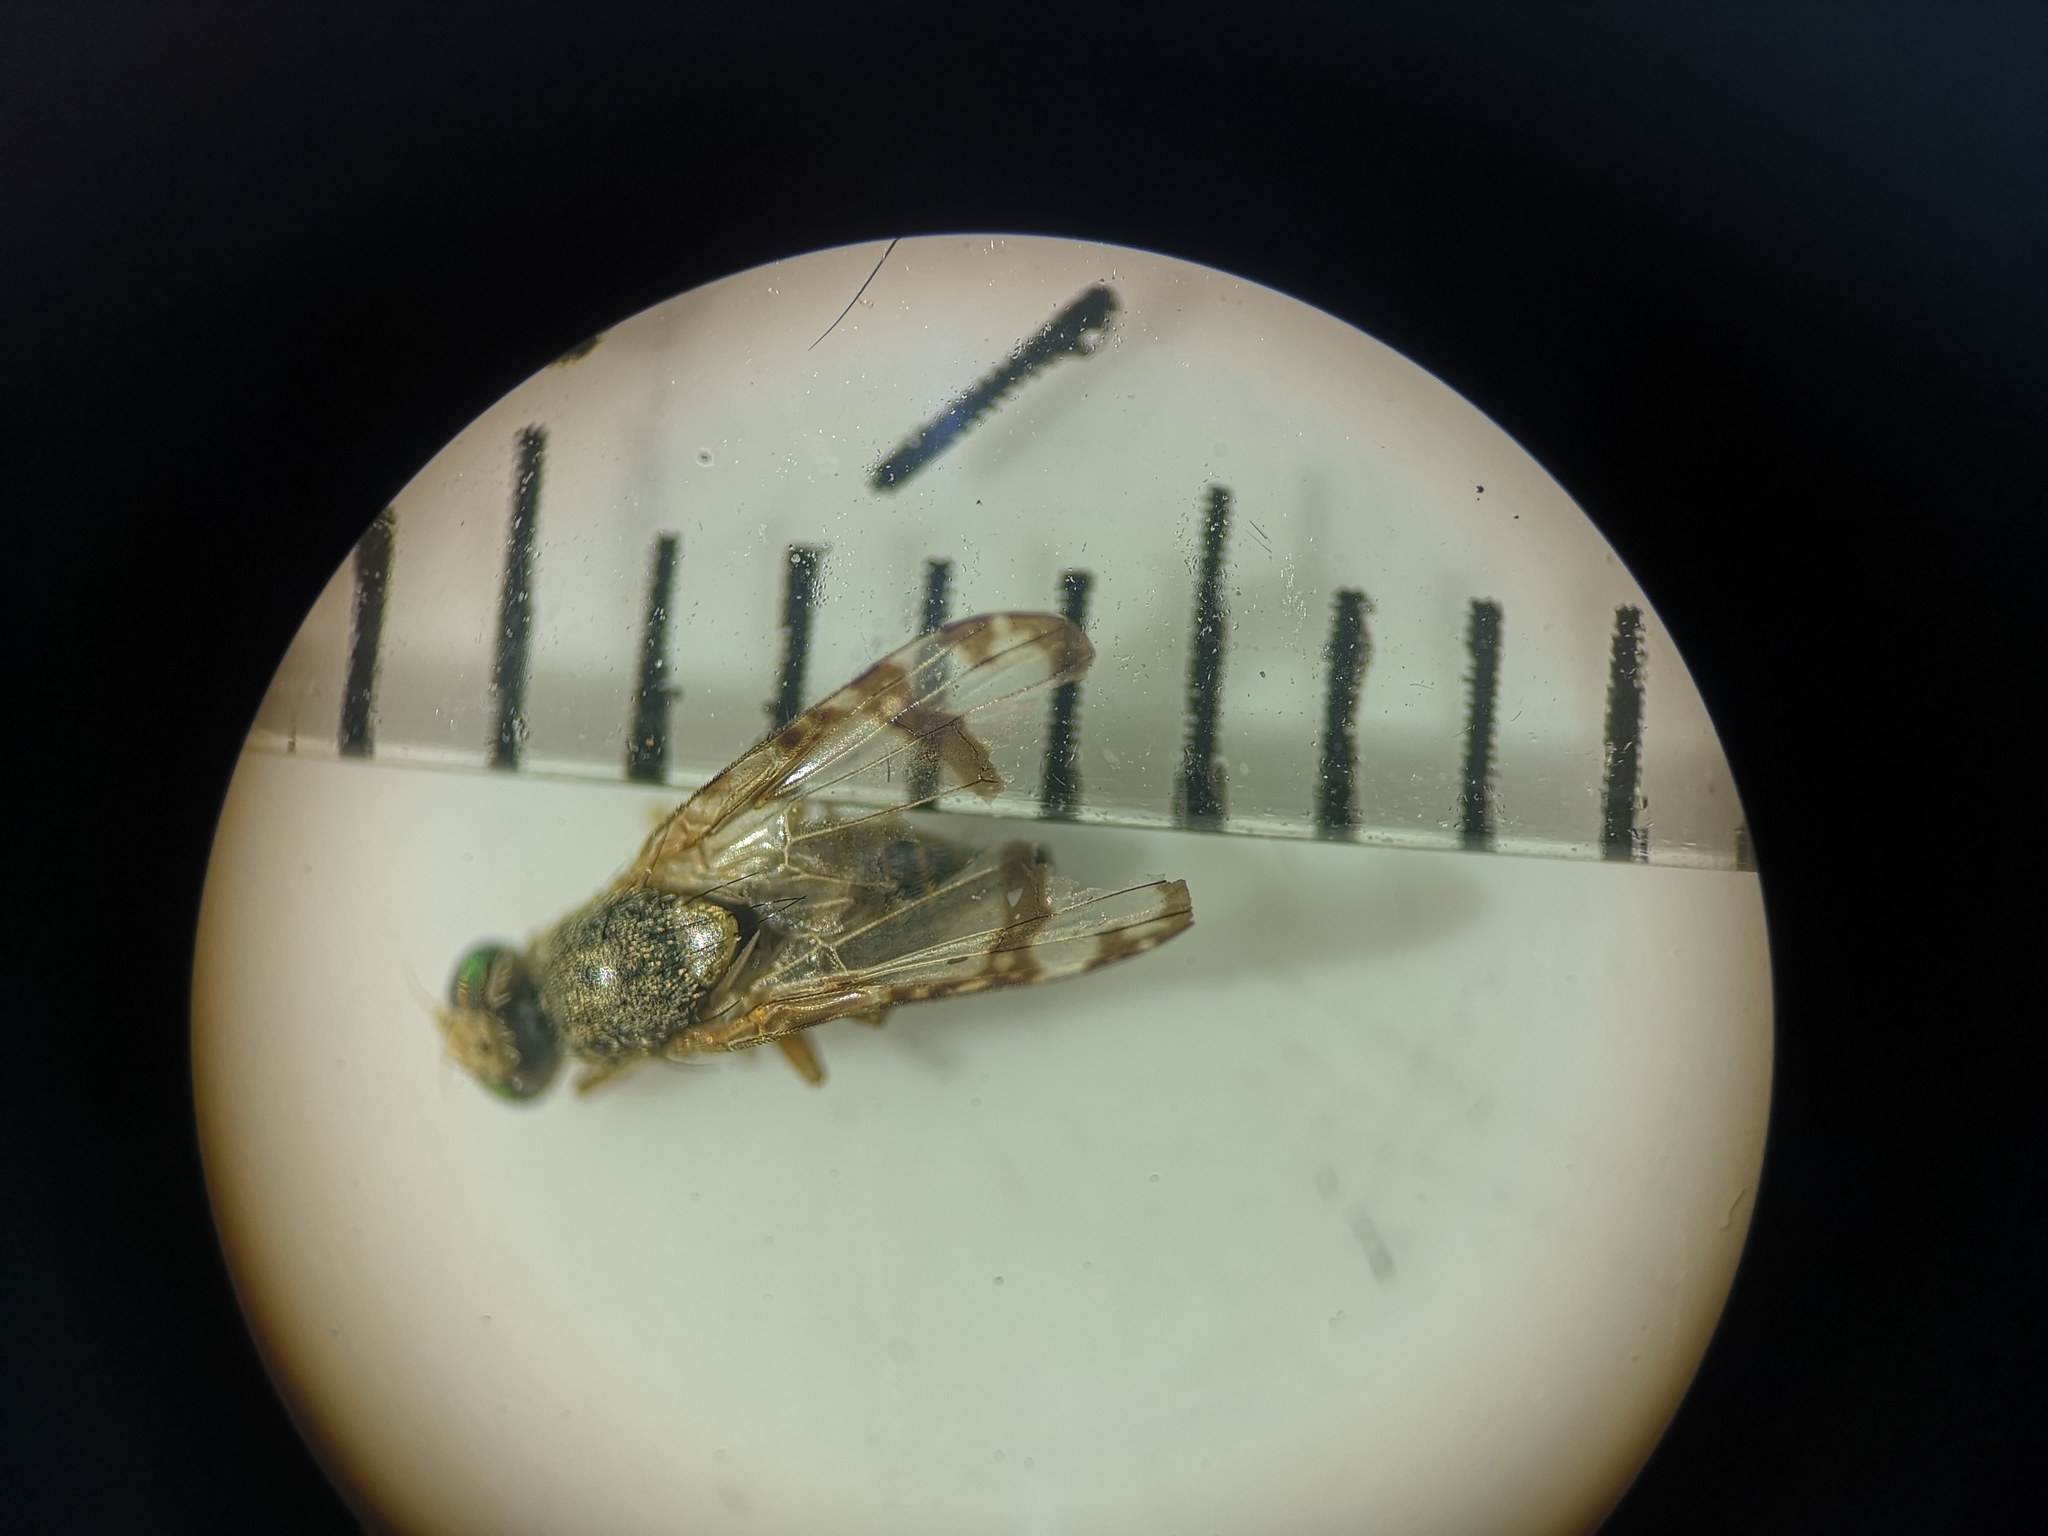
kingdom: Animalia
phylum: Arthropoda
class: Insecta
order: Diptera
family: Tephritidae
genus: Sphenella
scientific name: Sphenella marginata
